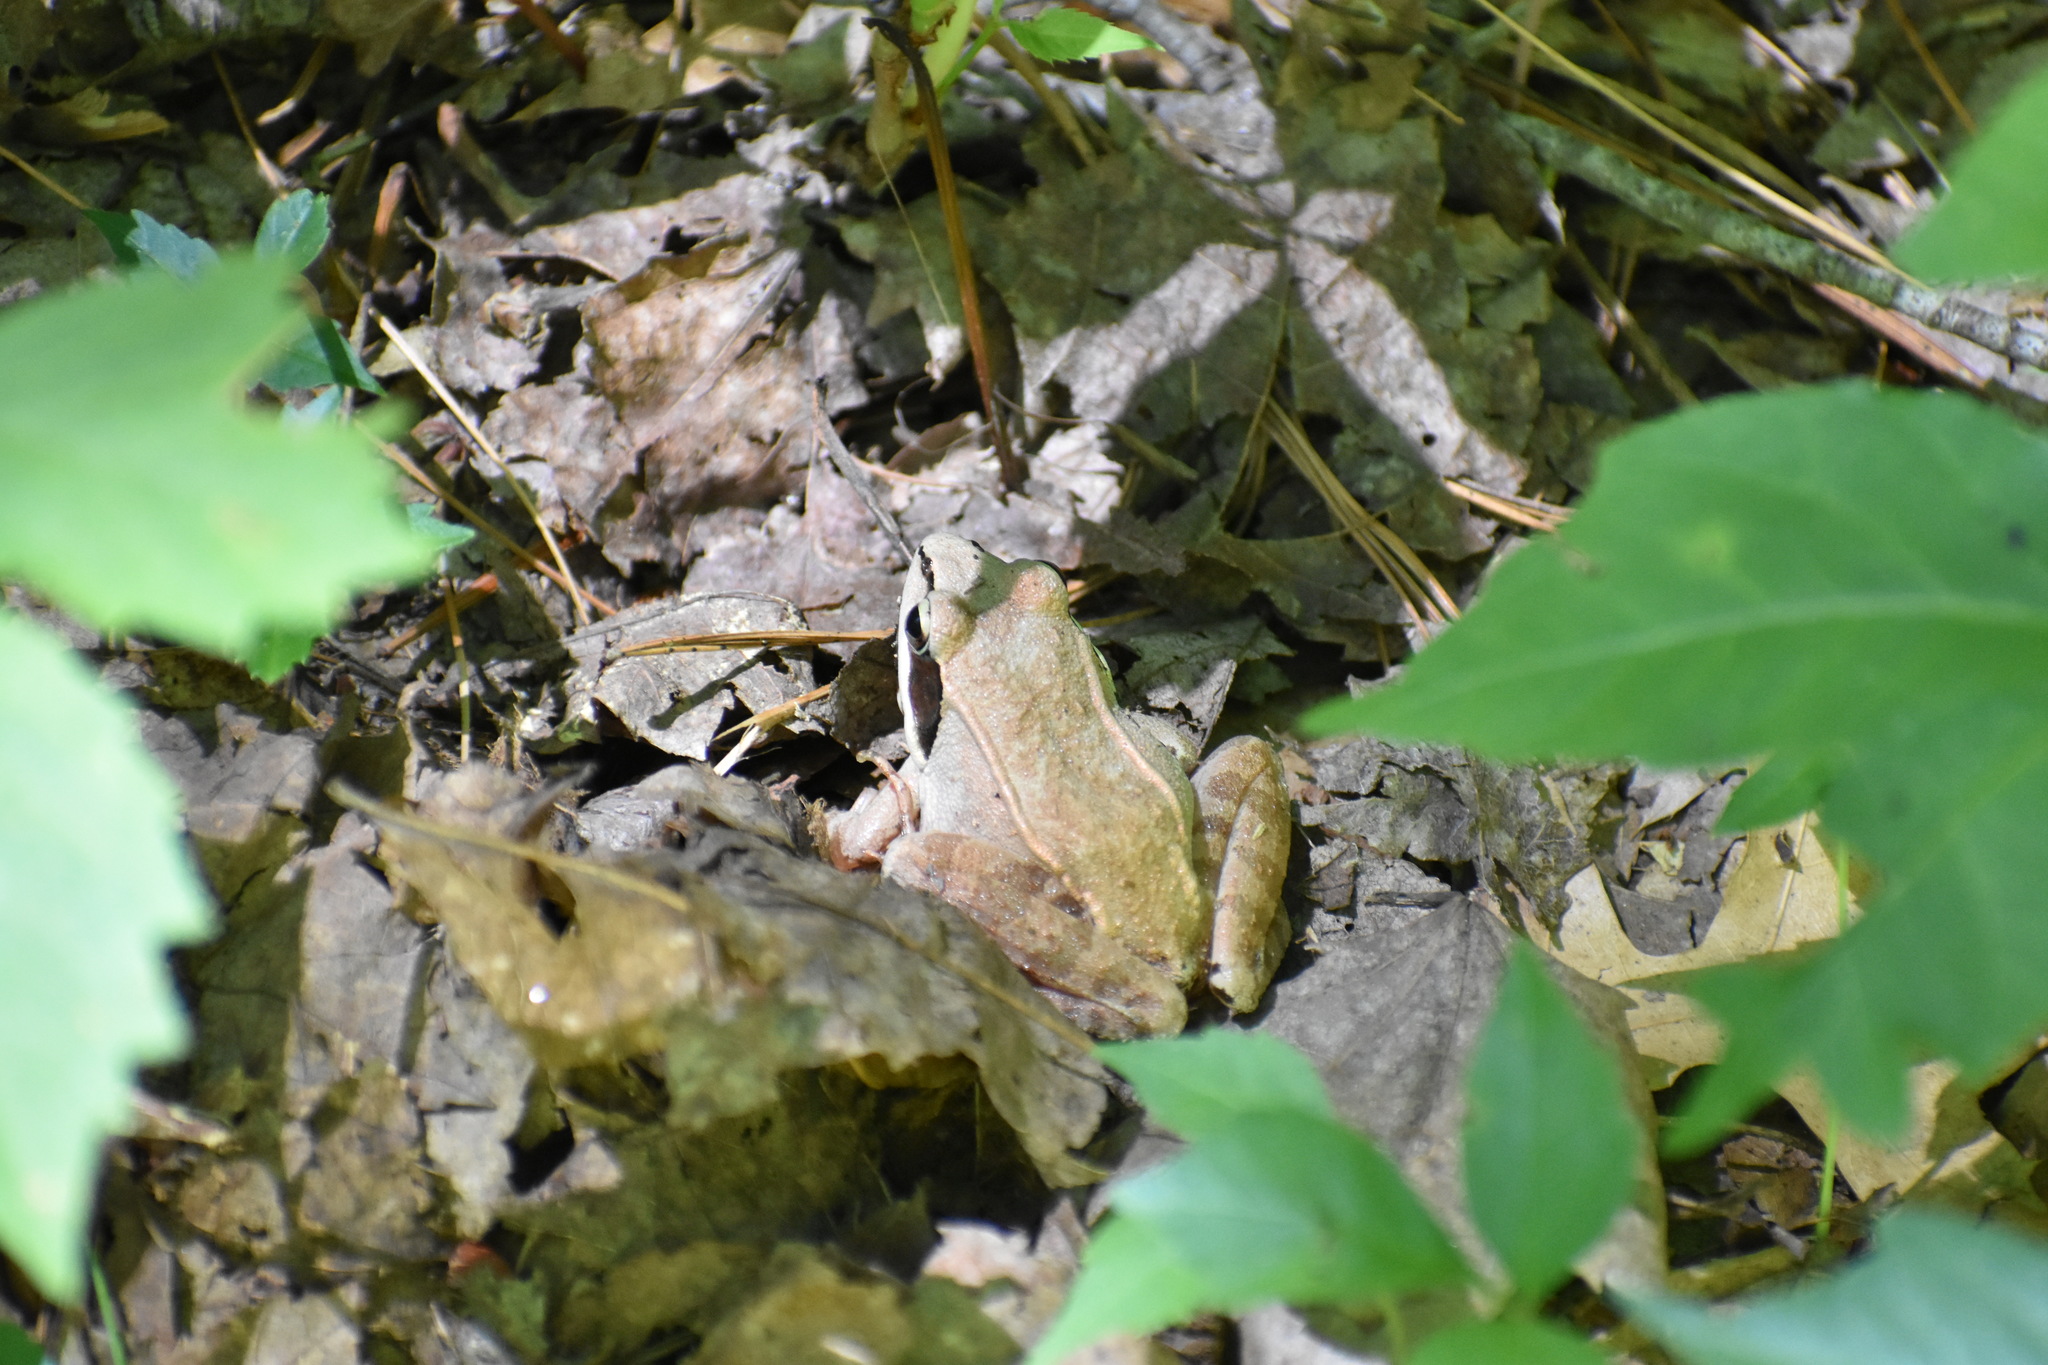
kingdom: Animalia
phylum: Chordata
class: Amphibia
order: Anura
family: Ranidae
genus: Lithobates
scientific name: Lithobates sylvaticus
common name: Wood frog
